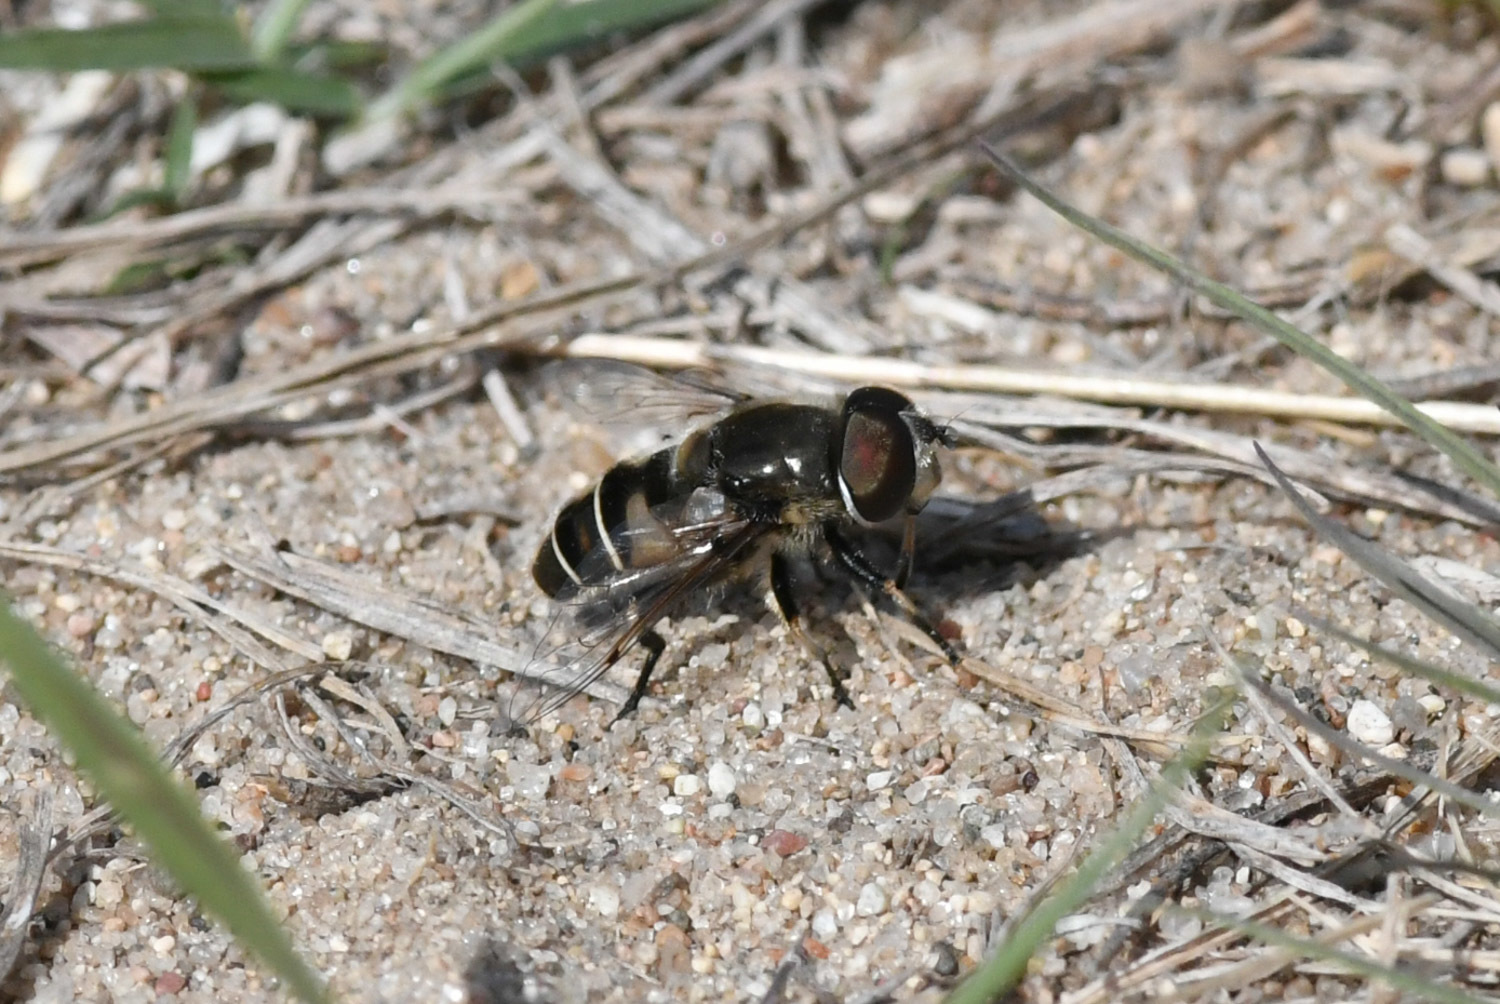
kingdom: Animalia
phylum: Arthropoda
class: Insecta
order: Diptera
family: Syrphidae
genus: Eristalis
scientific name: Eristalis dimidiata
